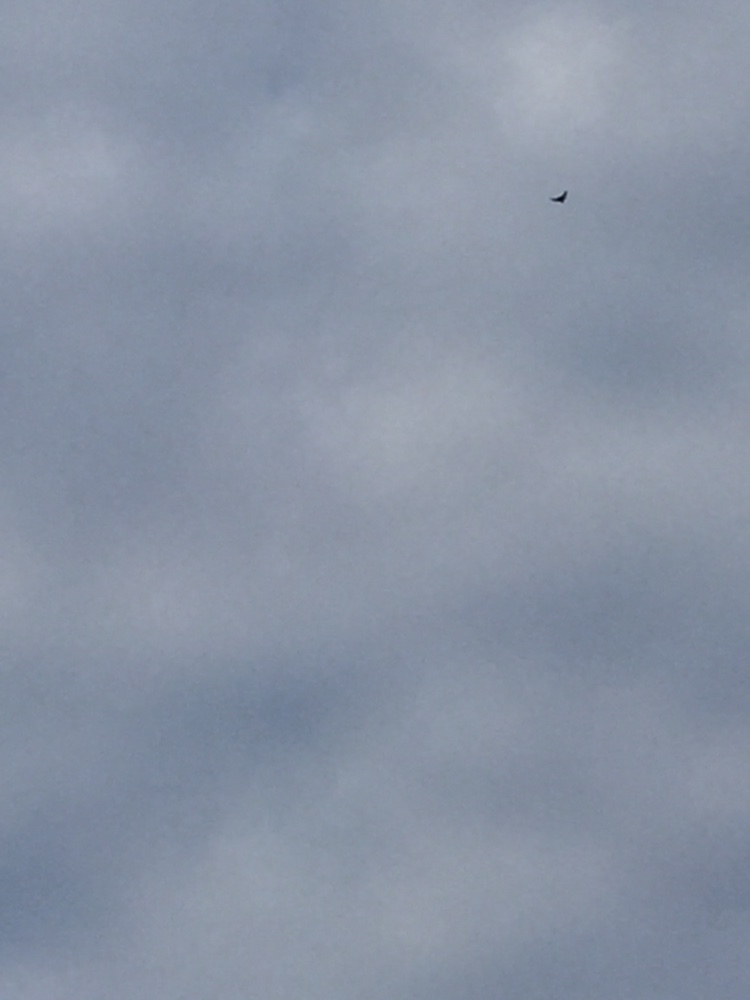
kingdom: Animalia
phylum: Chordata
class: Aves
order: Passeriformes
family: Alaudidae
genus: Alauda
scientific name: Alauda arvensis
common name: Eurasian skylark
